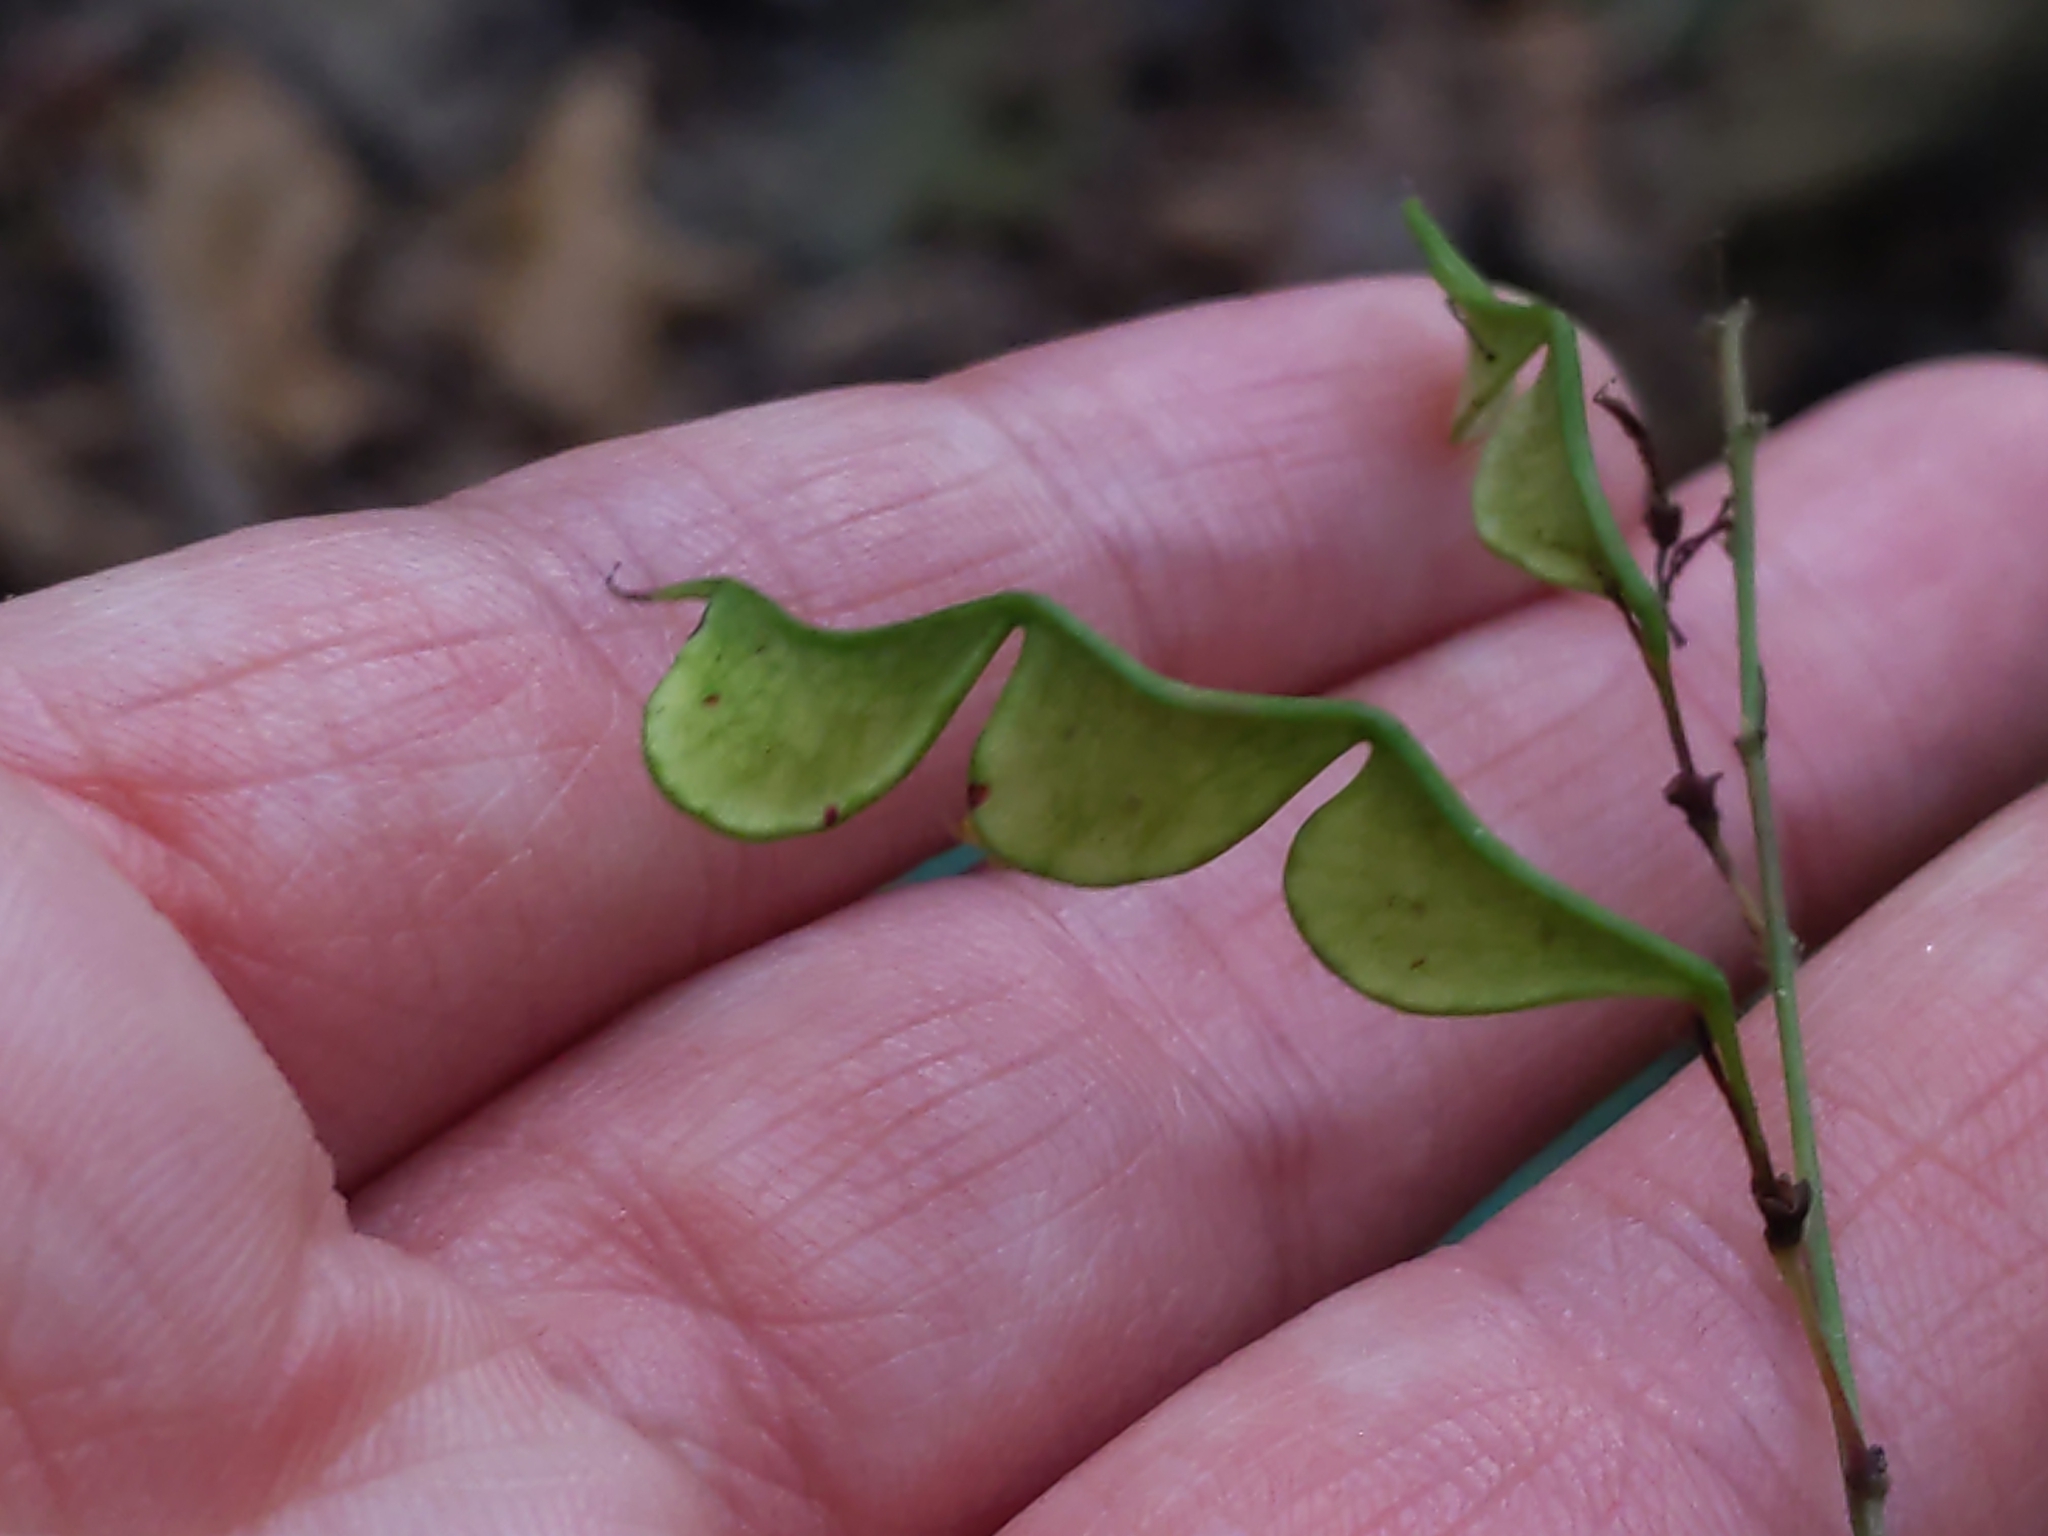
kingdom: Plantae
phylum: Tracheophyta
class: Magnoliopsida
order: Fabales
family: Fabaceae
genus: Hylodesmum
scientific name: Hylodesmum glutinosum
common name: Clustered-leaved tick-trefoil
